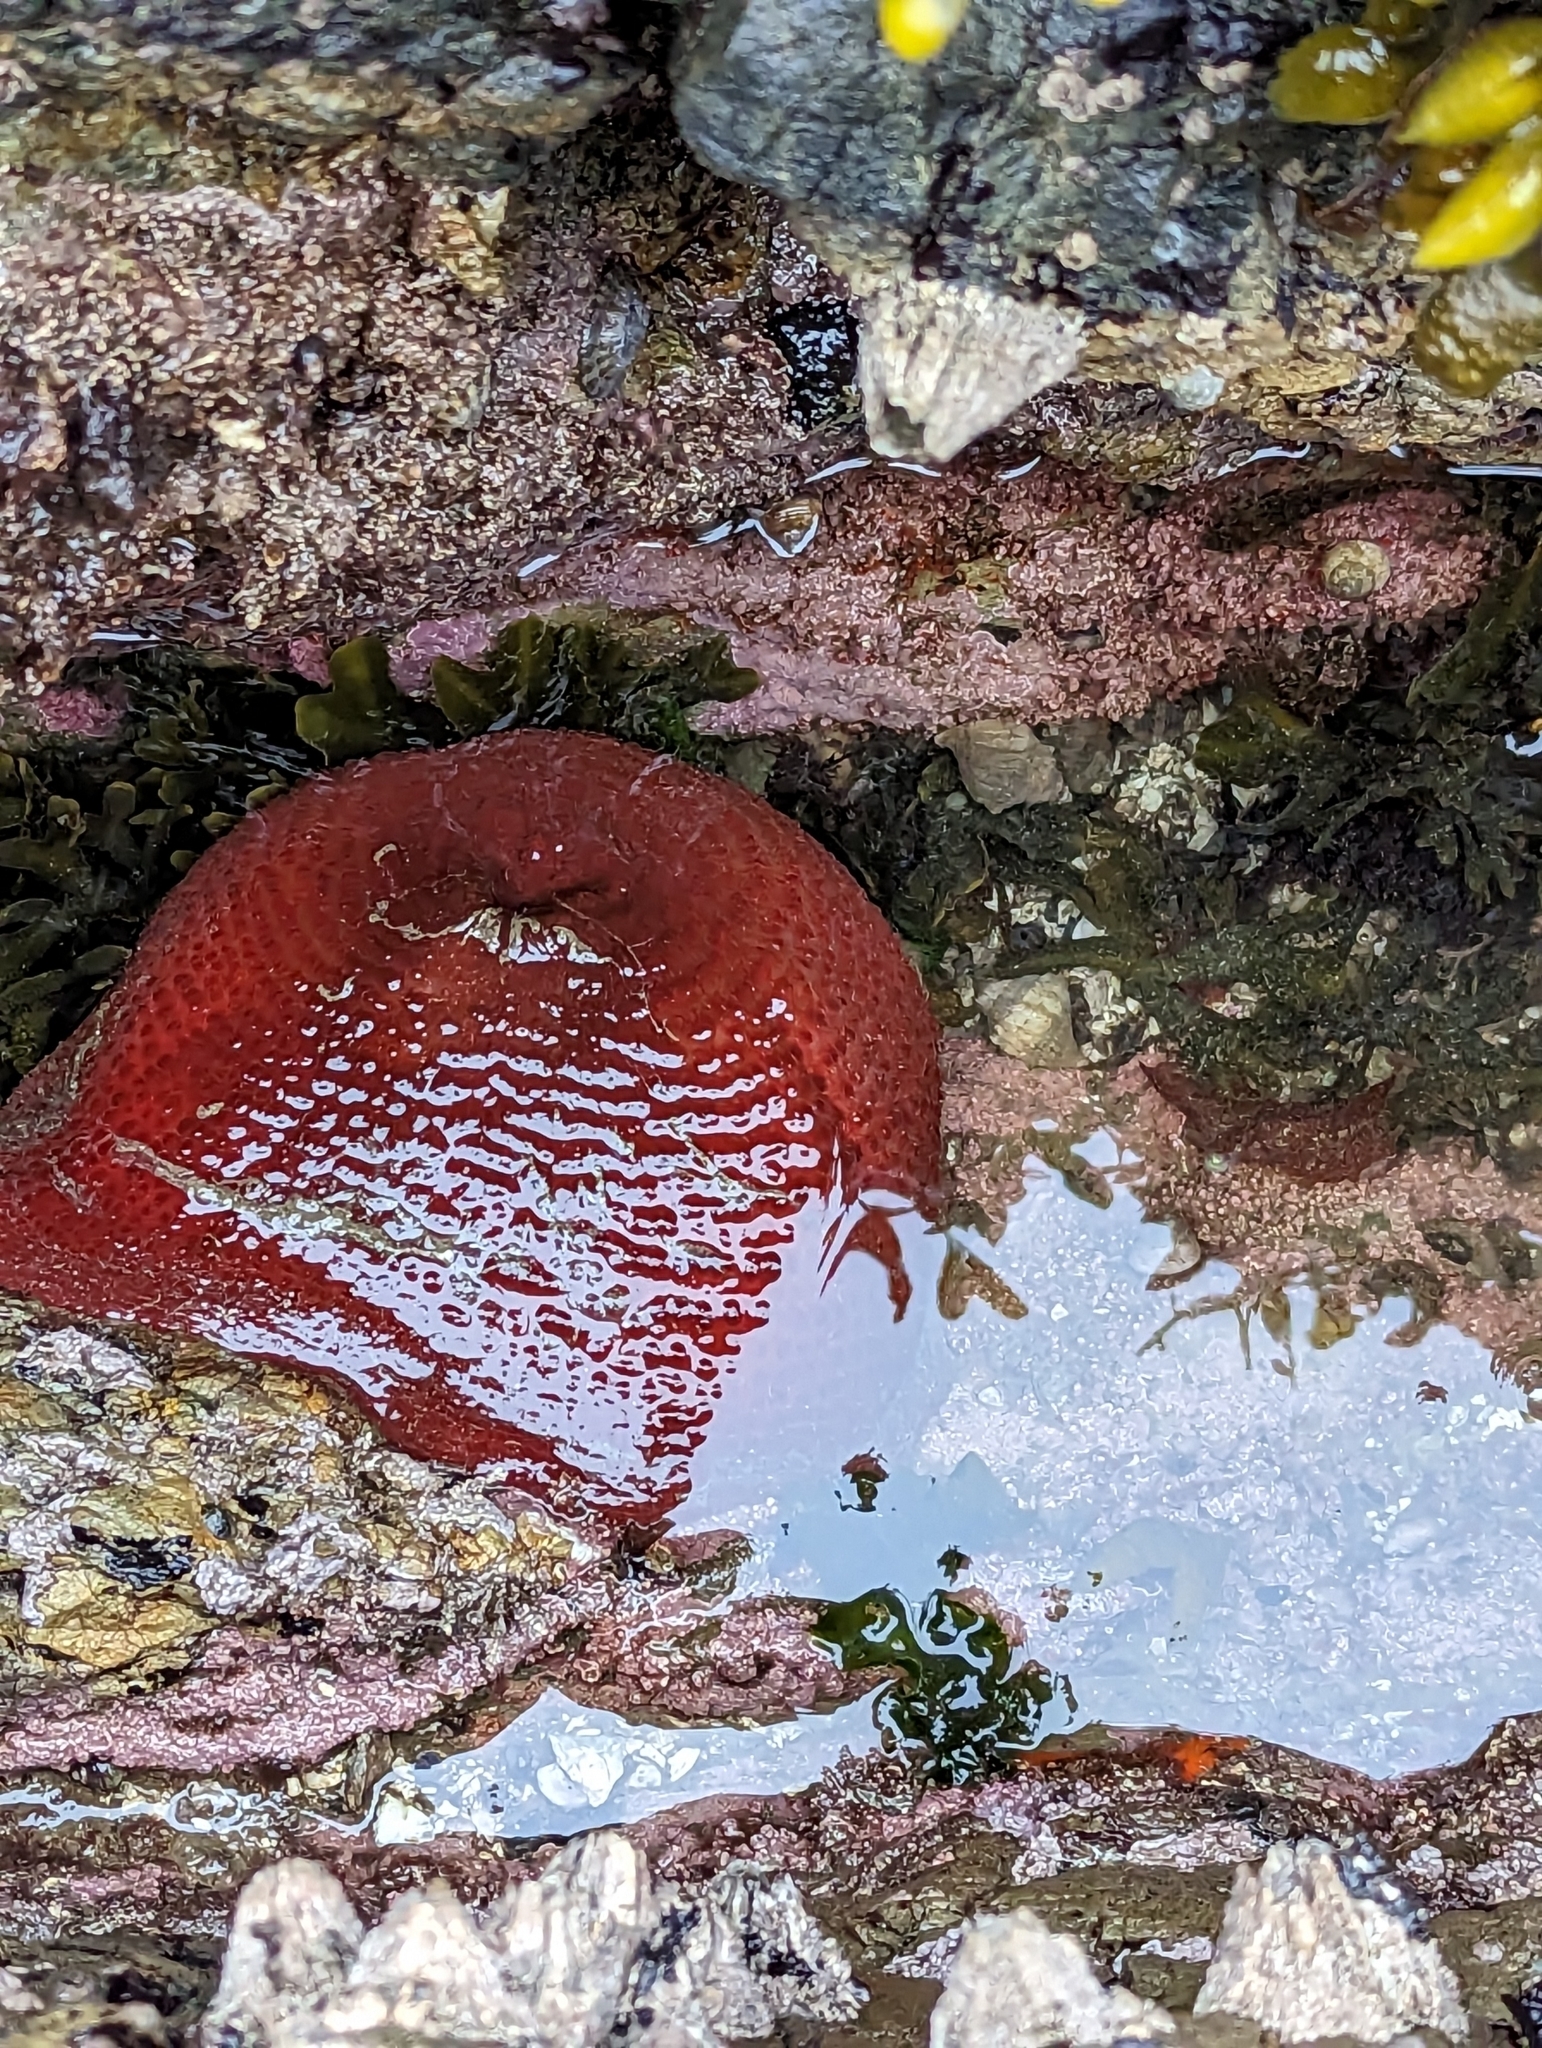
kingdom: Animalia
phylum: Cnidaria
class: Anthozoa
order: Actiniaria
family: Actiniidae
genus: Urticina
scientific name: Urticina grebelnyi
